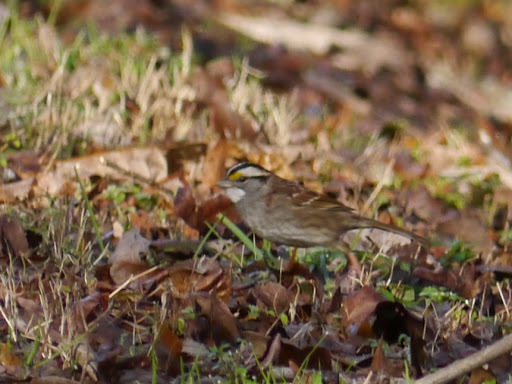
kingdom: Animalia
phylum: Chordata
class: Aves
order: Passeriformes
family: Passerellidae
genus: Zonotrichia
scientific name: Zonotrichia albicollis
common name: White-throated sparrow
